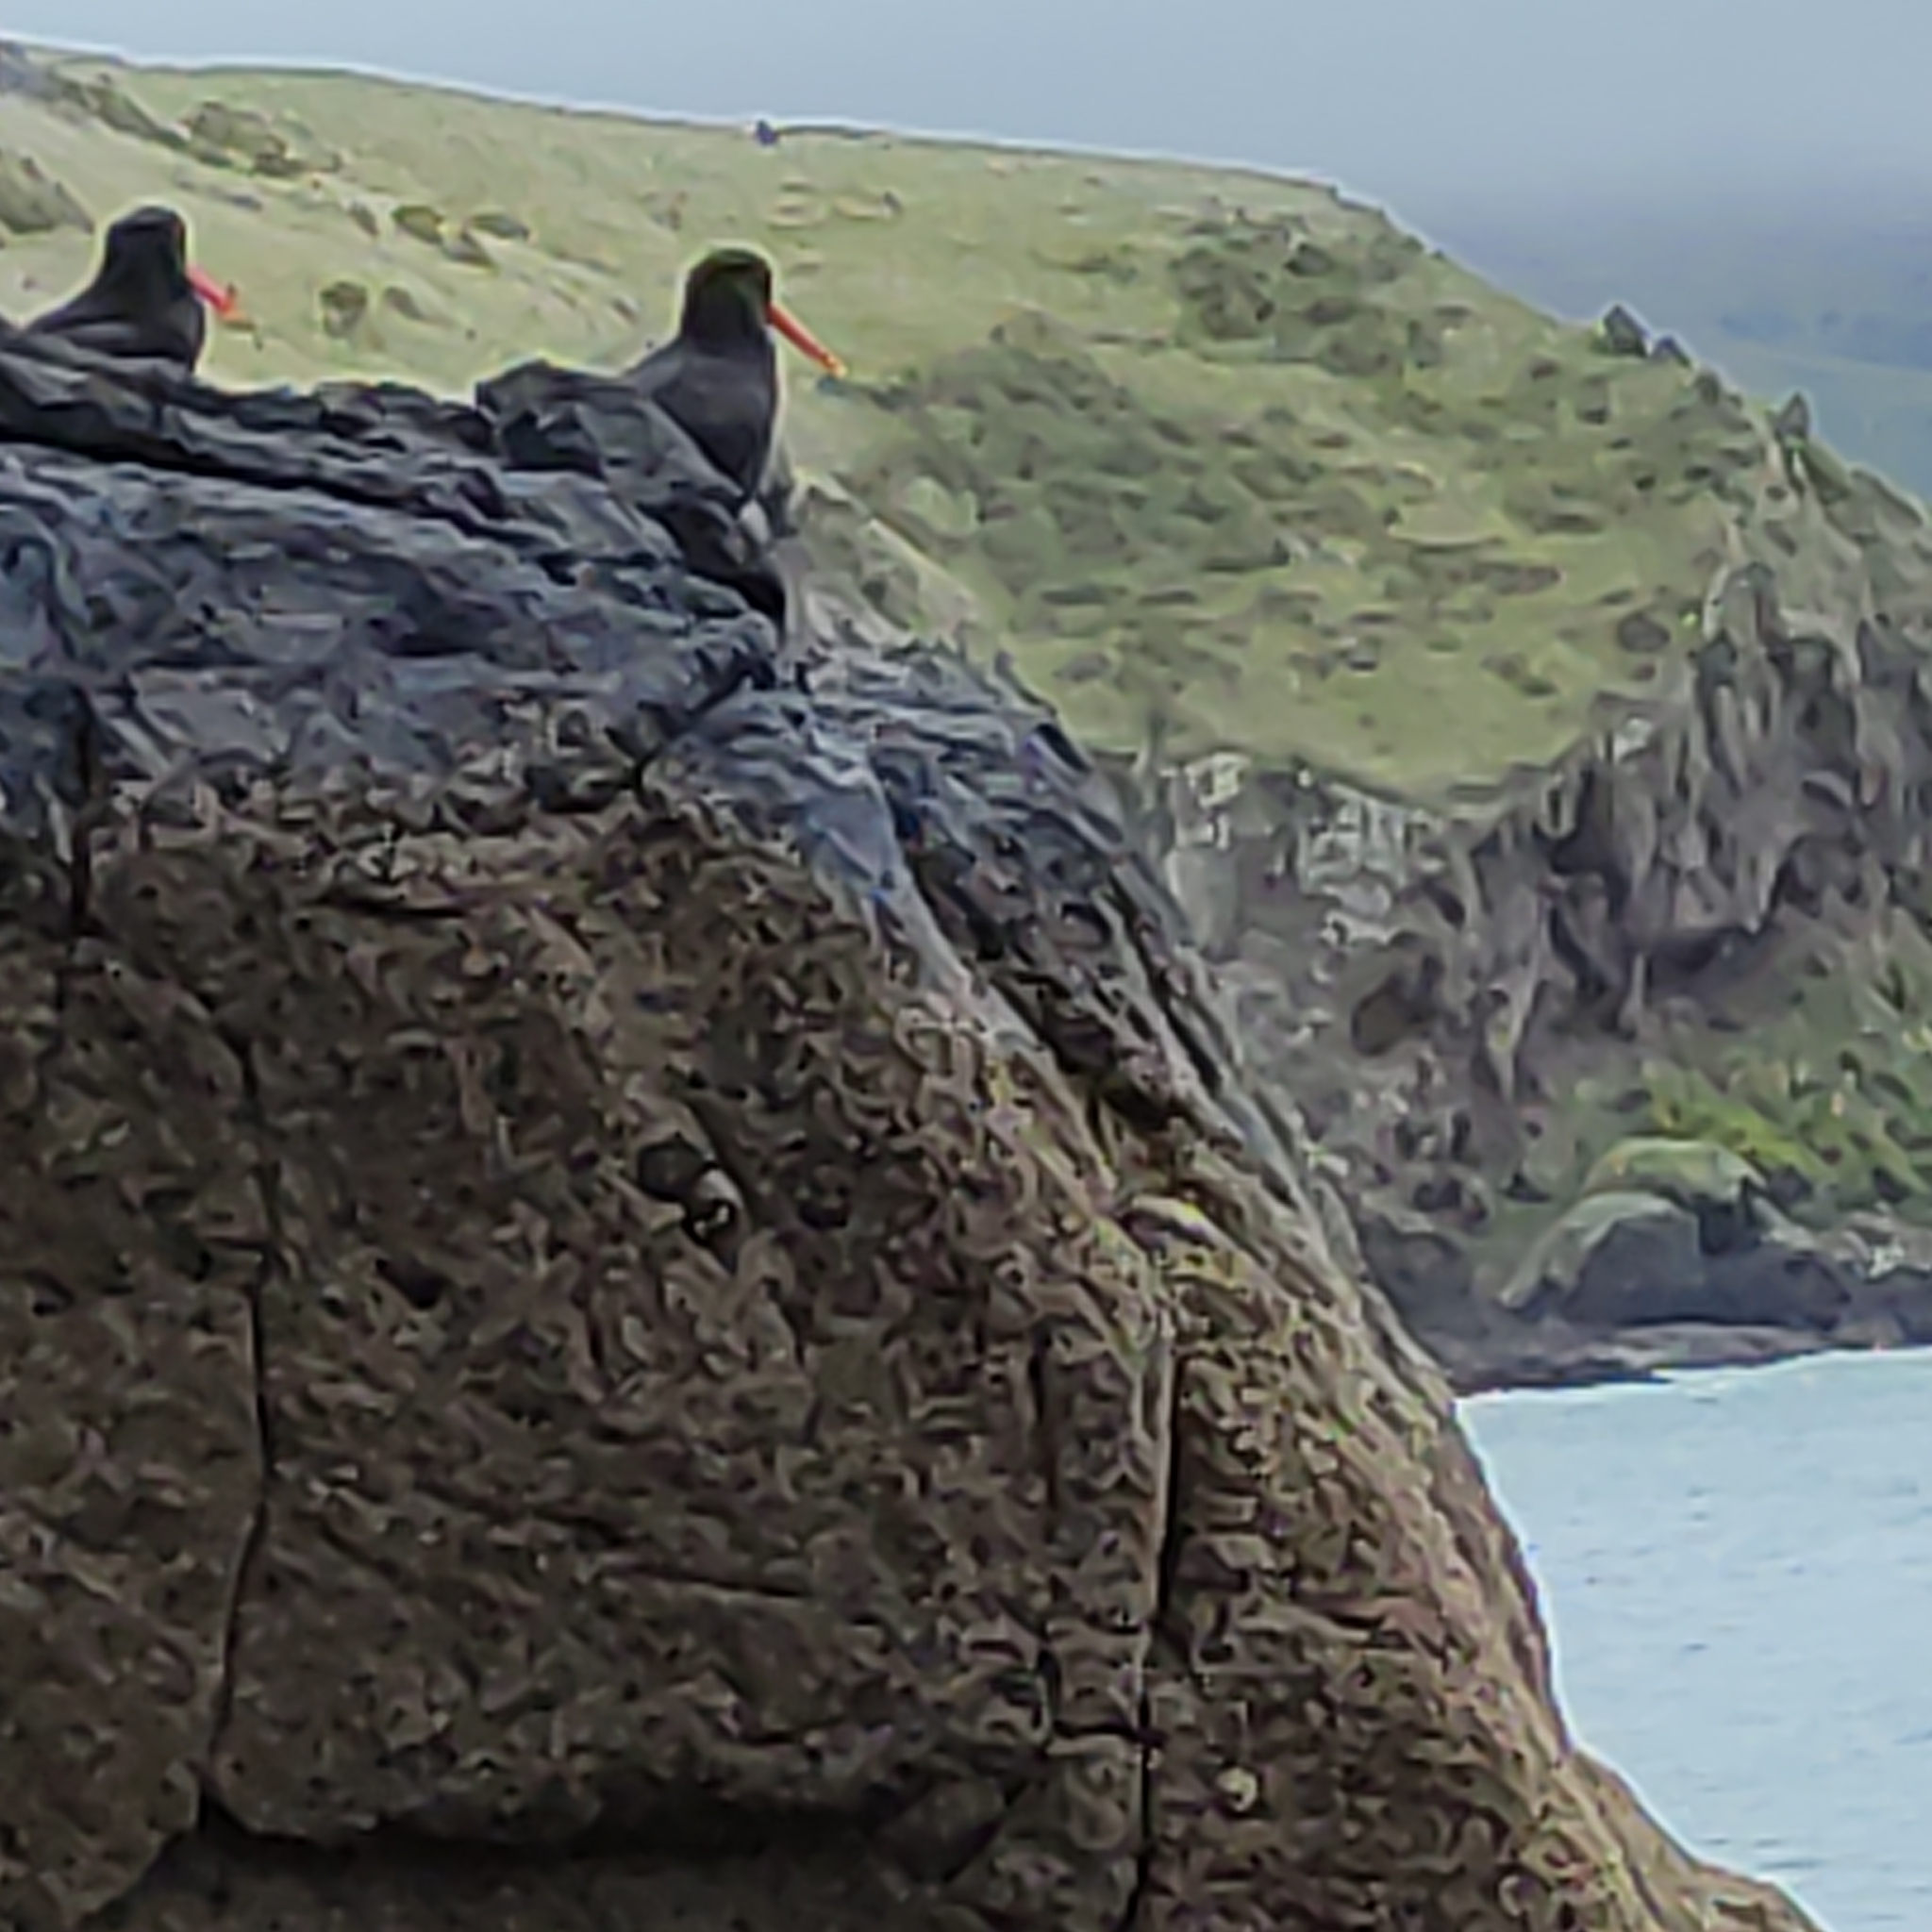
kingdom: Animalia
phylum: Chordata
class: Aves
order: Charadriiformes
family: Haematopodidae
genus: Haematopus
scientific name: Haematopus unicolor
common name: Variable oystercatcher
